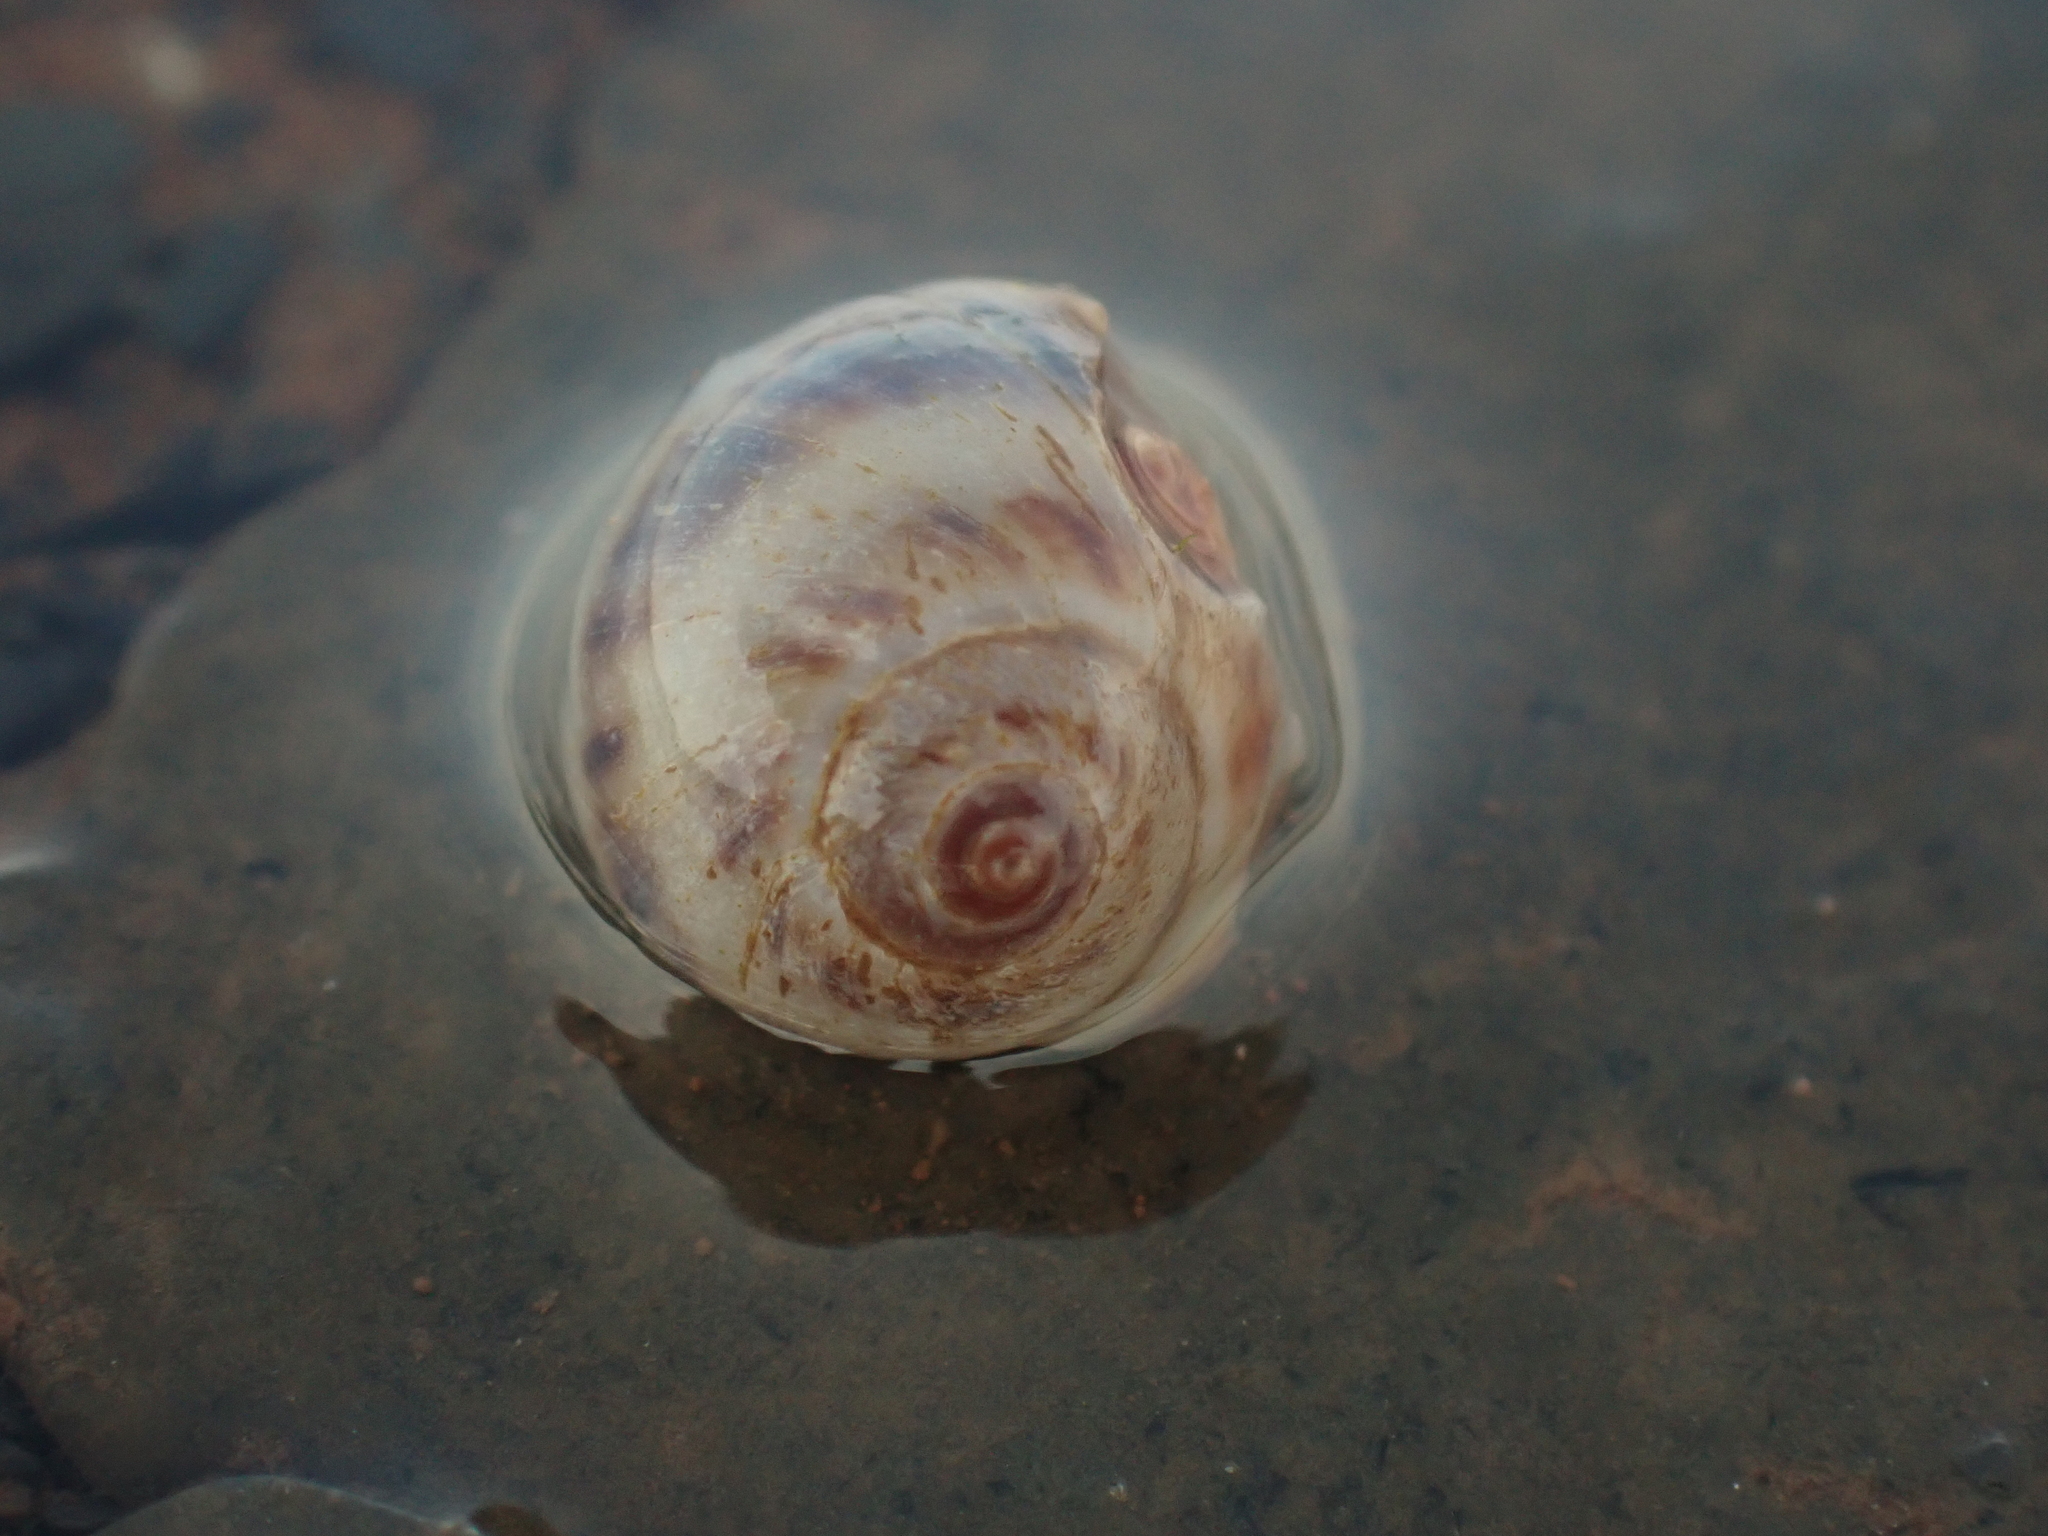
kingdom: Animalia
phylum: Mollusca
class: Gastropoda
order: Littorinimorpha
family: Naticidae
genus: Euspira
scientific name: Euspira triseriata
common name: Spotted moonsnail
